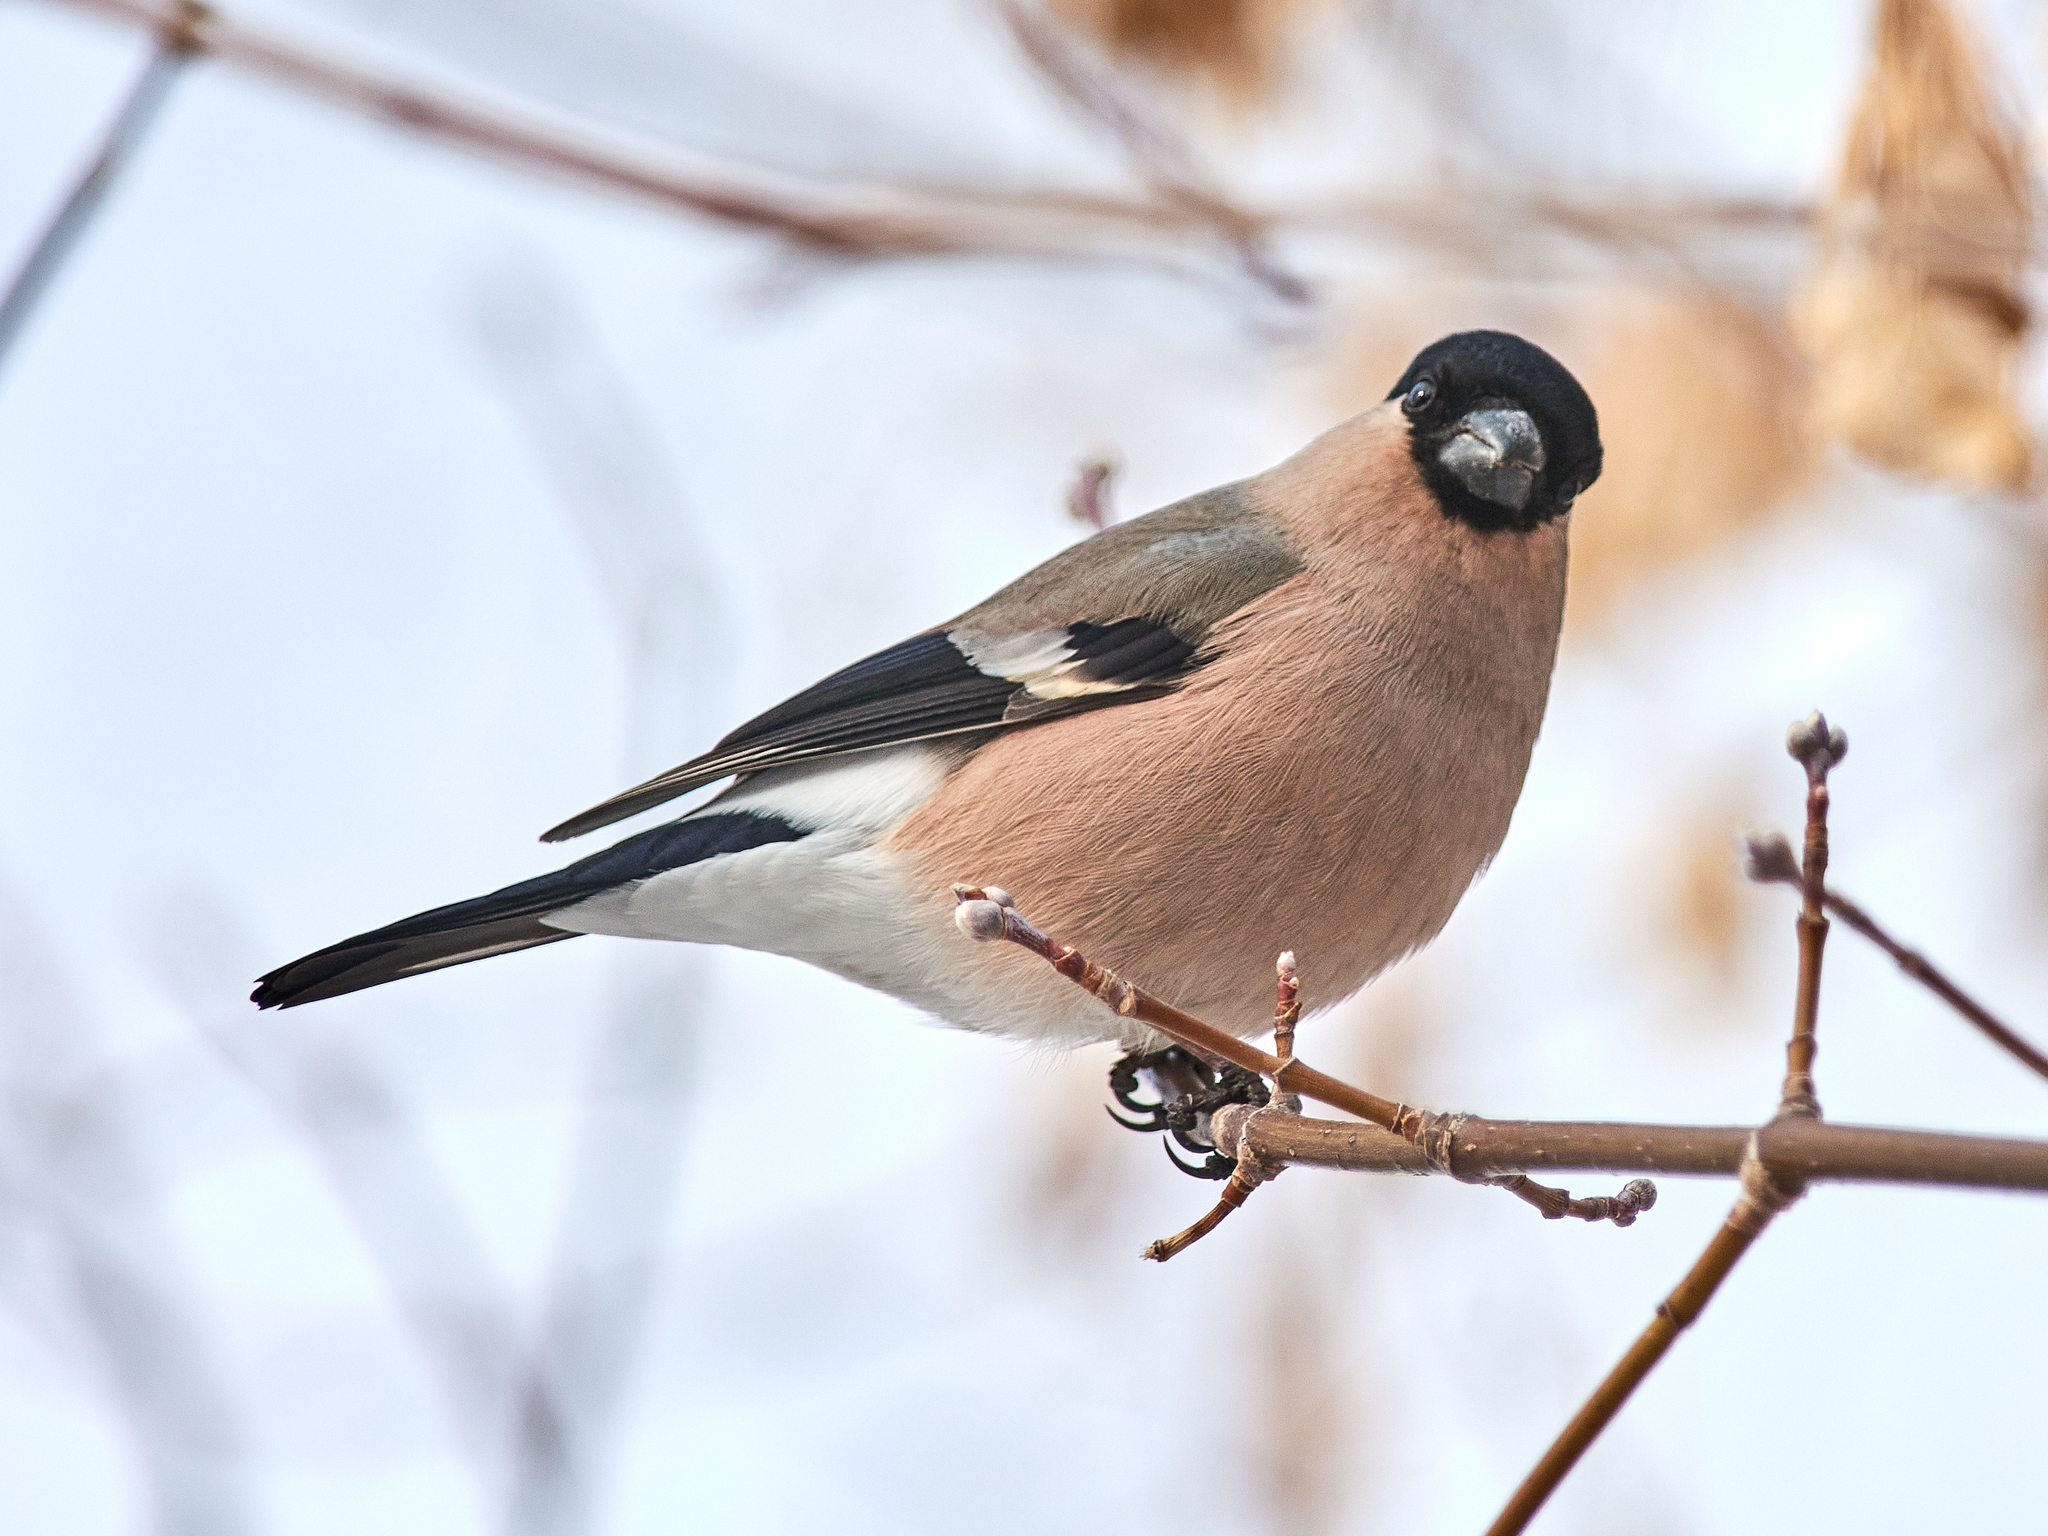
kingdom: Animalia
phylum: Chordata
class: Aves
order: Passeriformes
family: Fringillidae
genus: Pyrrhula
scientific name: Pyrrhula pyrrhula
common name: Eurasian bullfinch
